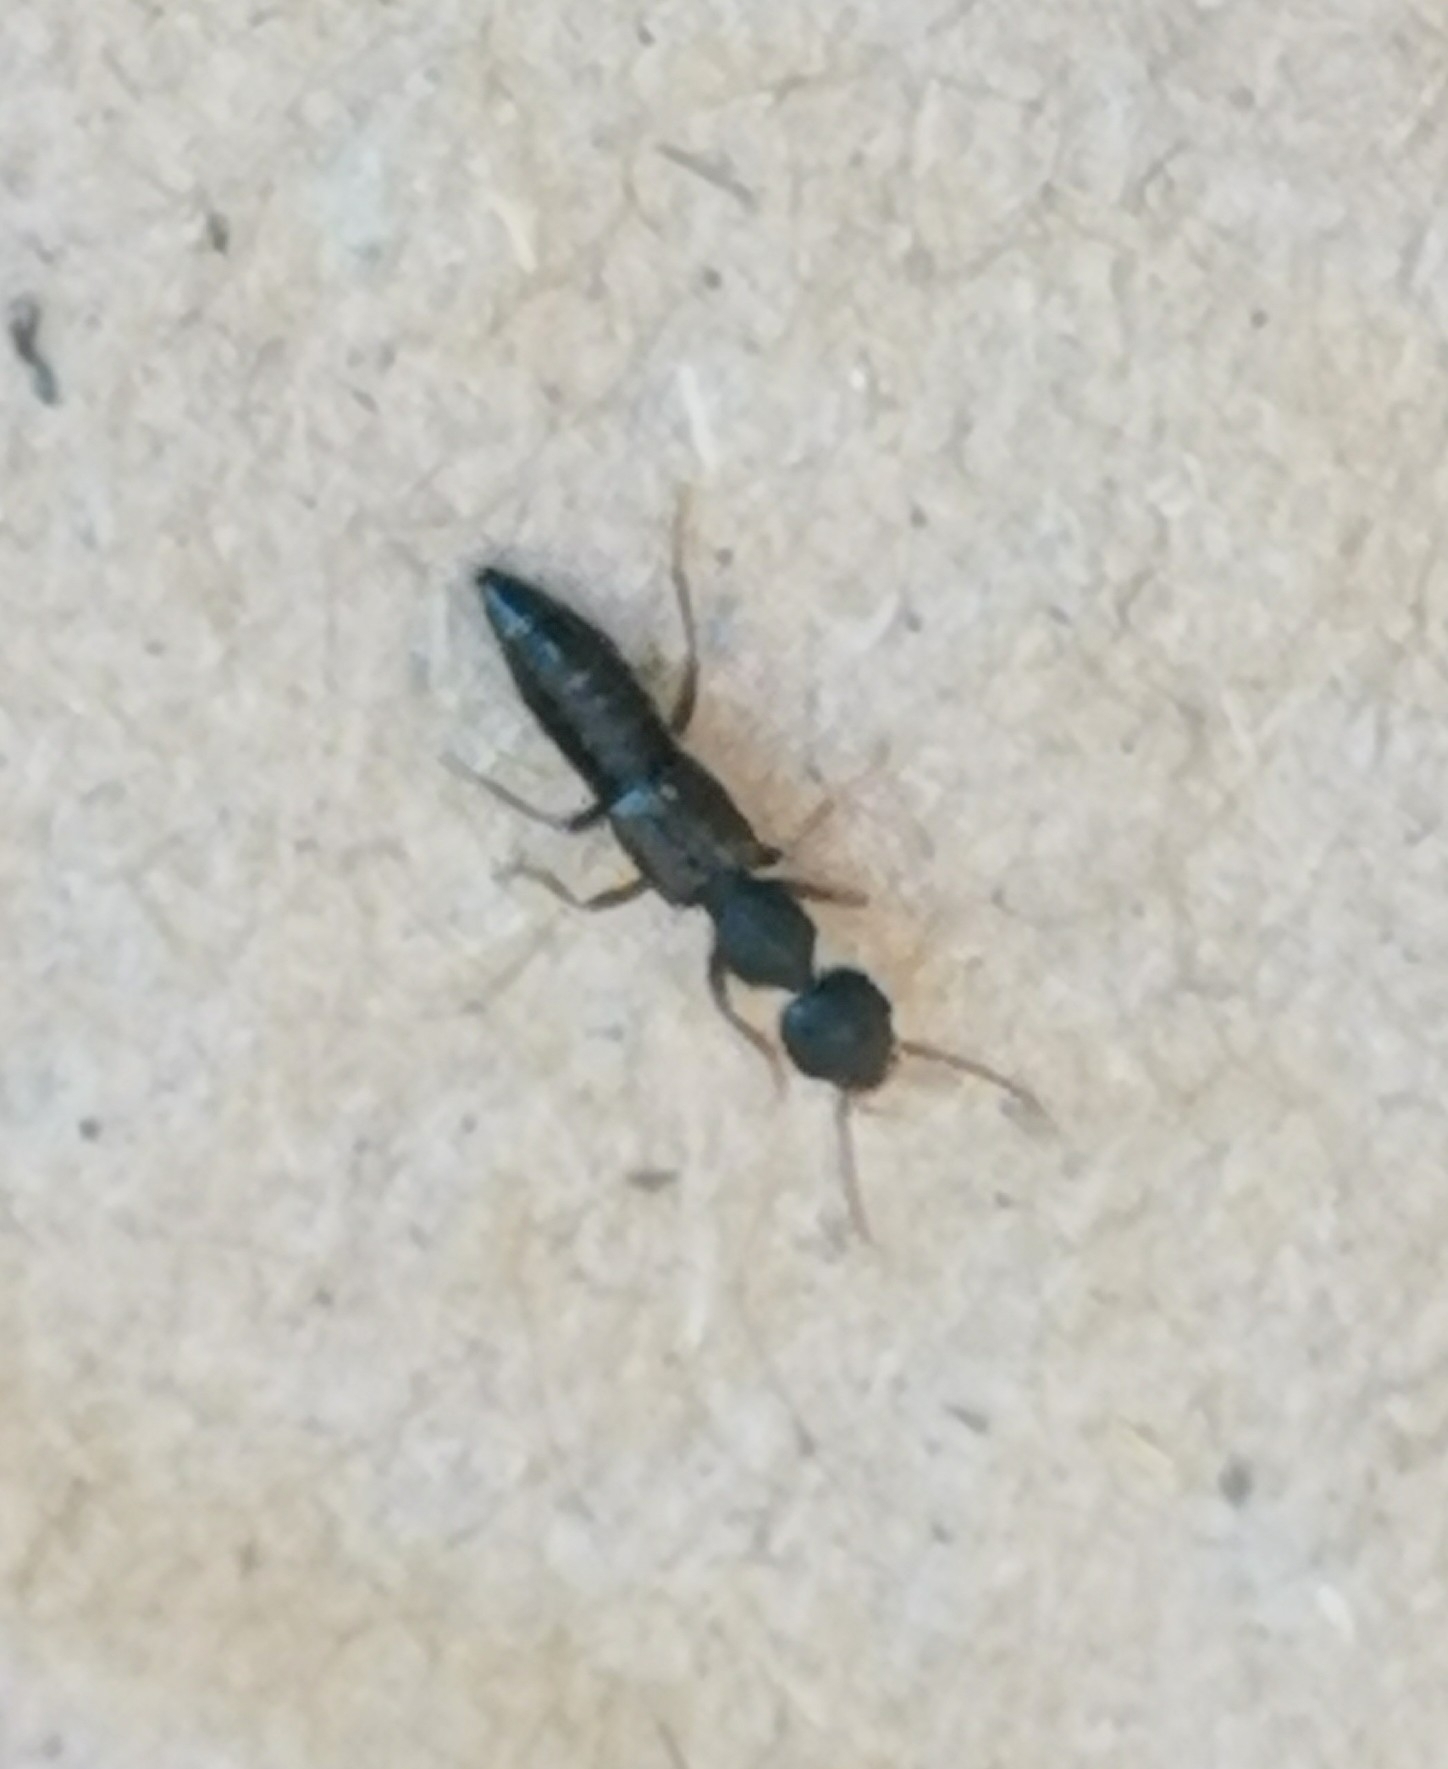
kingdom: Animalia
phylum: Arthropoda
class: Insecta
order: Coleoptera
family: Staphylinidae
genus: Rugilus
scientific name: Rugilus rufipes
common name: Staph beetle
